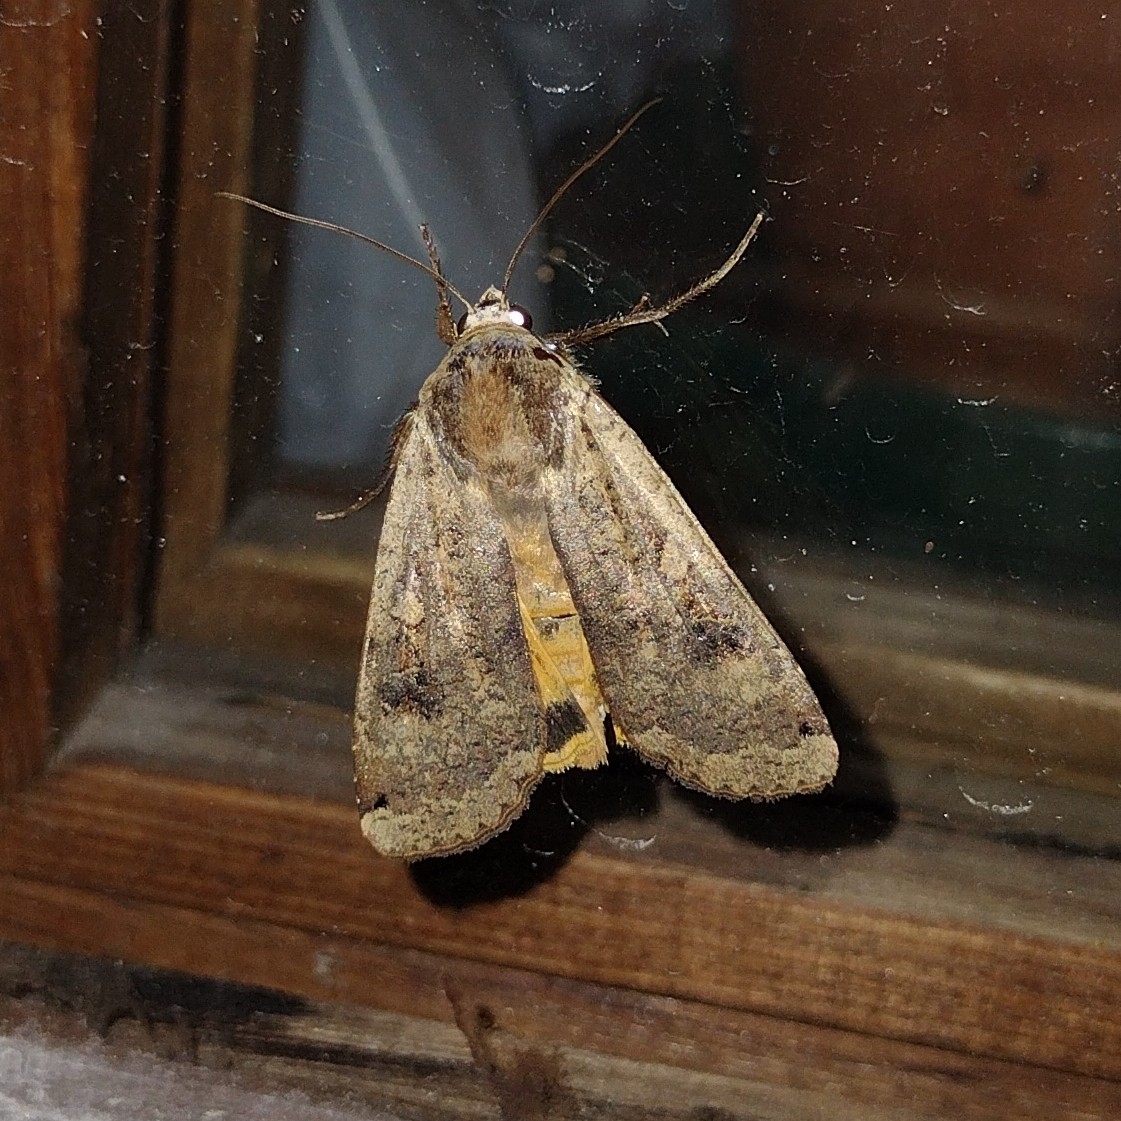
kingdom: Animalia
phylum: Arthropoda
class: Insecta
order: Lepidoptera
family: Noctuidae
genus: Noctua
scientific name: Noctua pronuba
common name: Large yellow underwing
